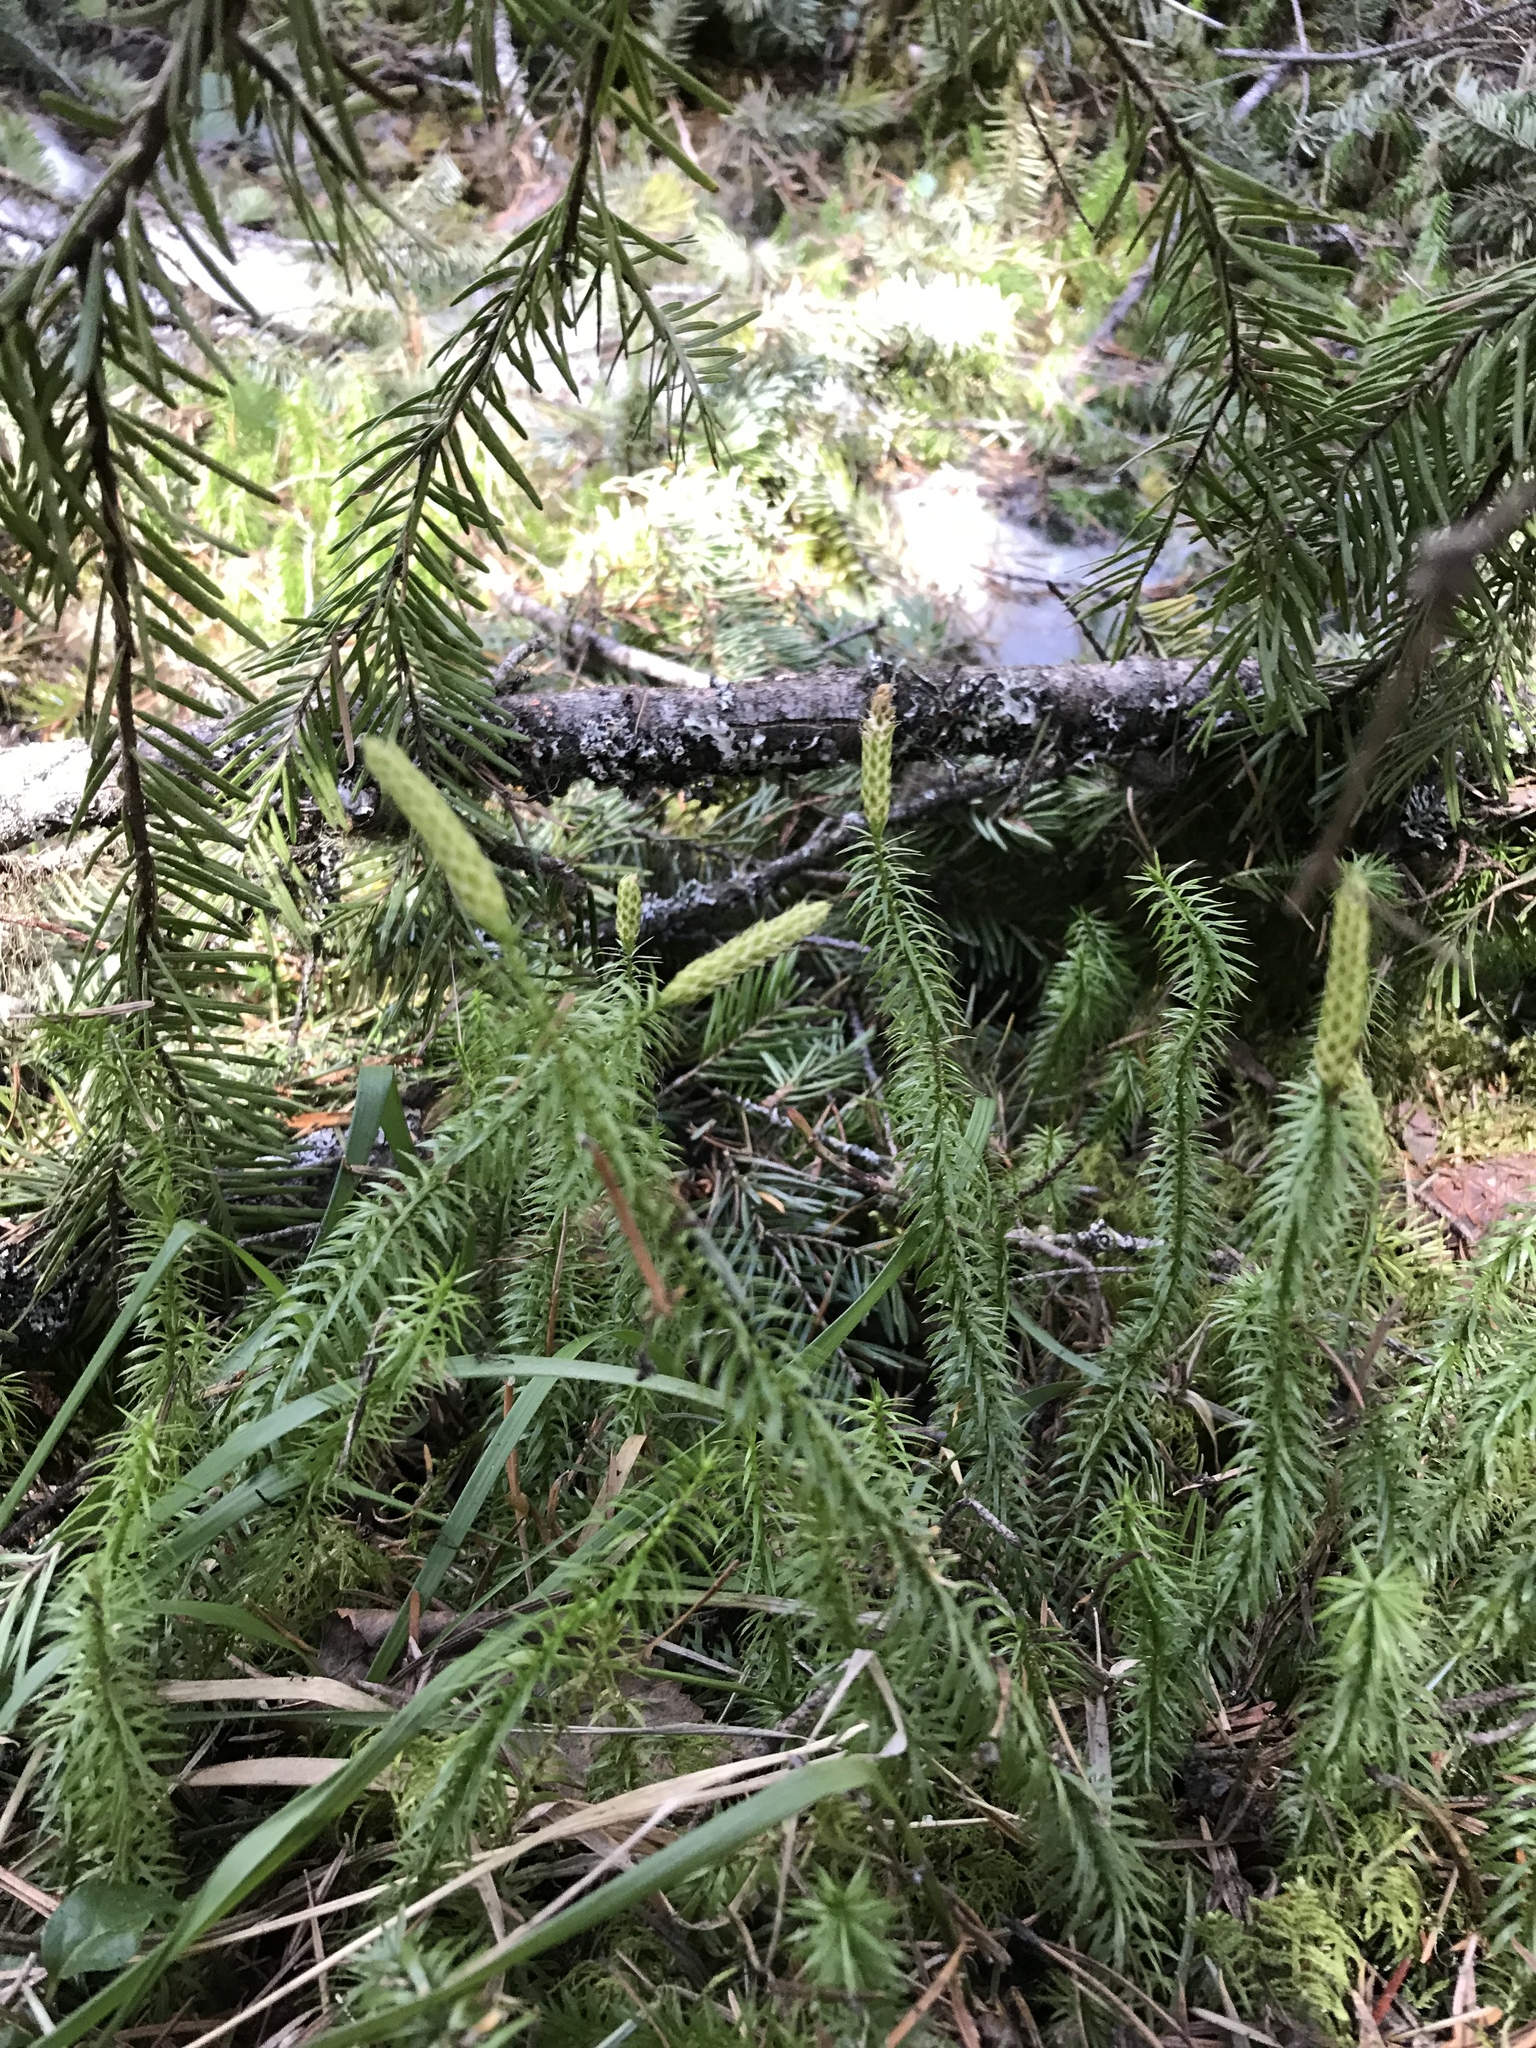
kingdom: Plantae
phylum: Tracheophyta
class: Lycopodiopsida
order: Lycopodiales
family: Lycopodiaceae
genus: Spinulum
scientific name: Spinulum annotinum
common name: Interrupted club-moss
